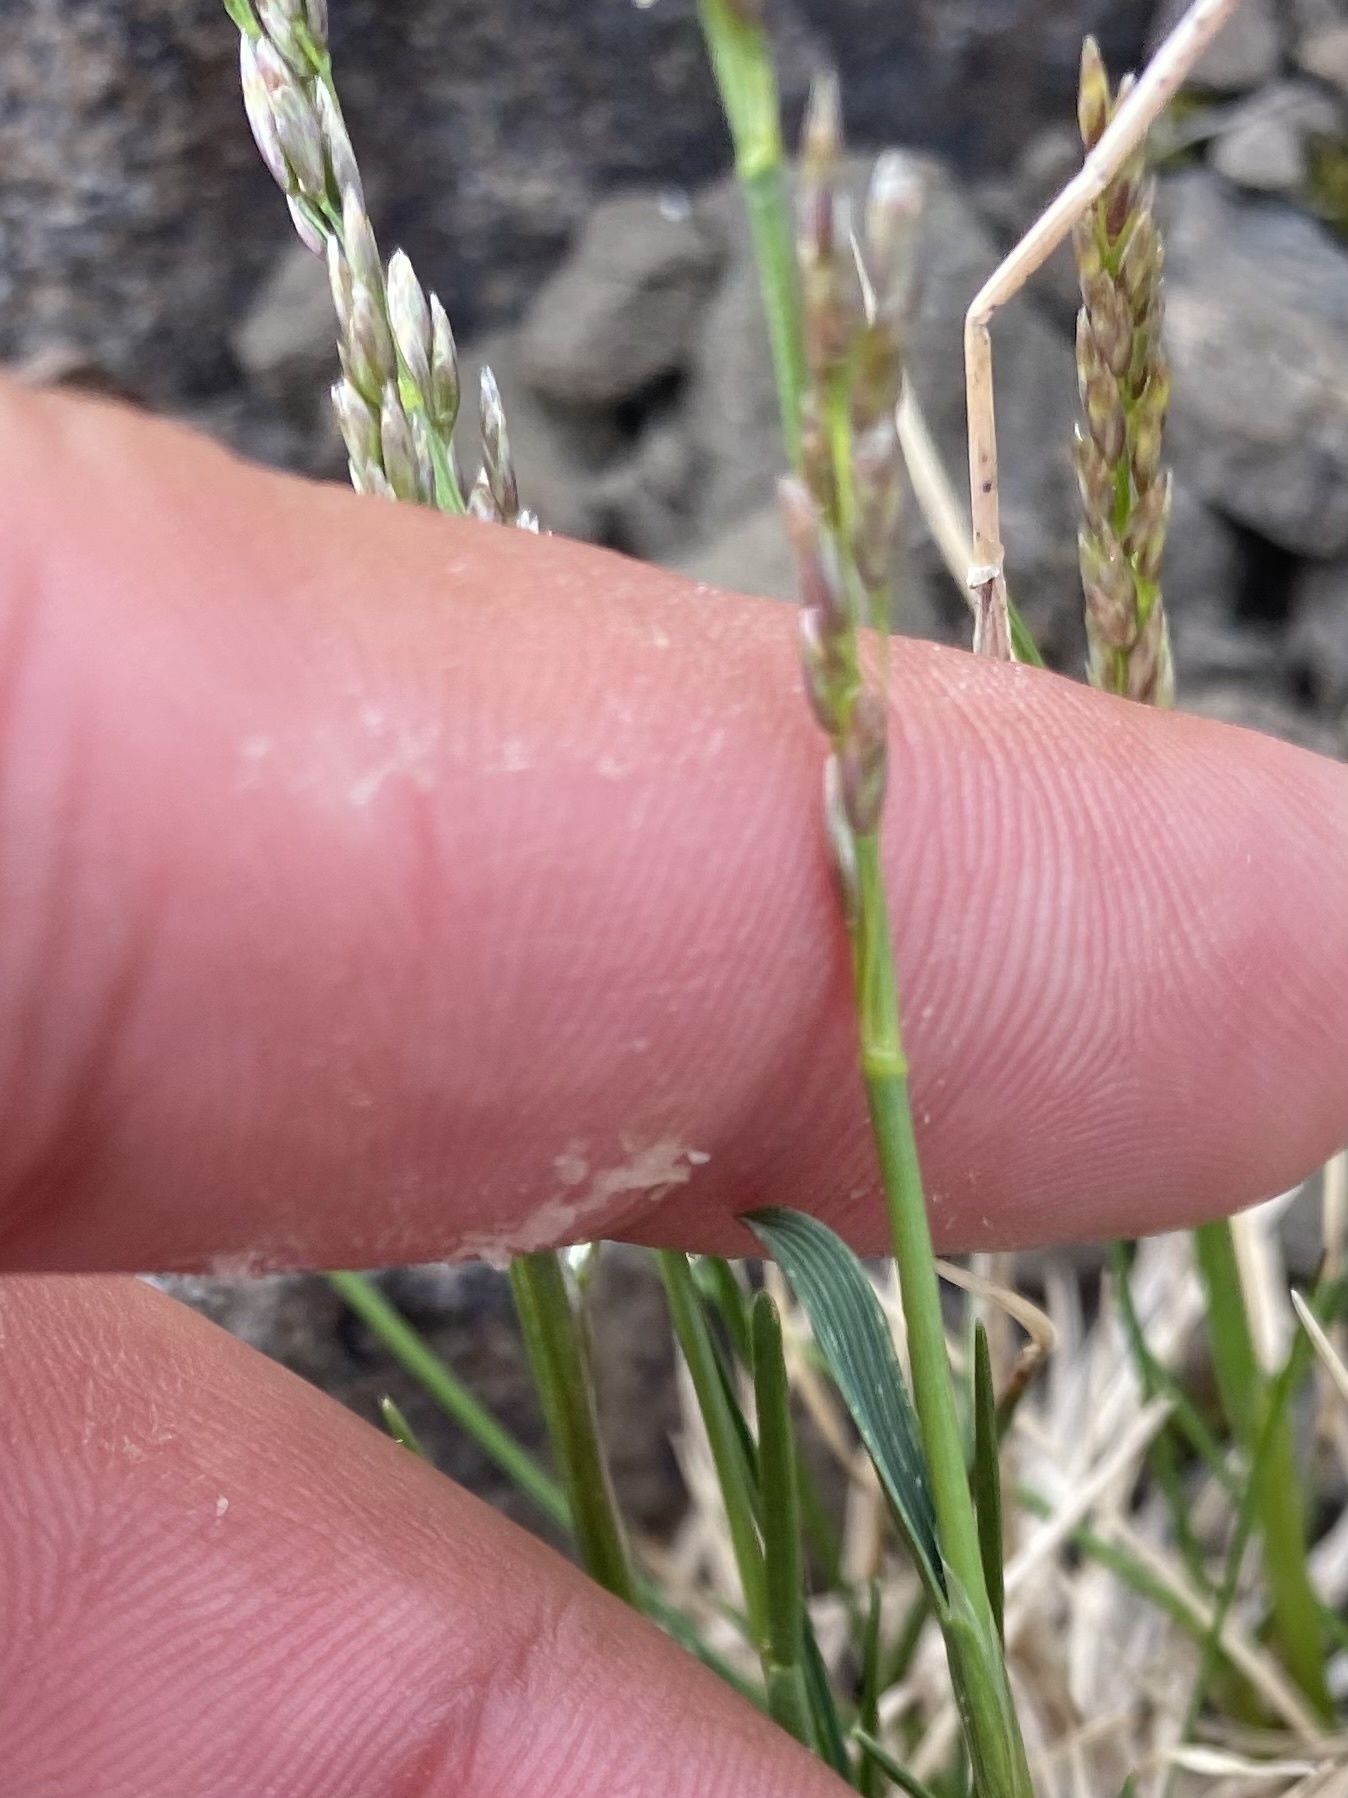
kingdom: Plantae
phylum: Tracheophyta
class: Liliopsida
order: Poales
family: Poaceae
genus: Deschampsia
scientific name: Deschampsia cespitosa
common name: Tufted hair-grass
